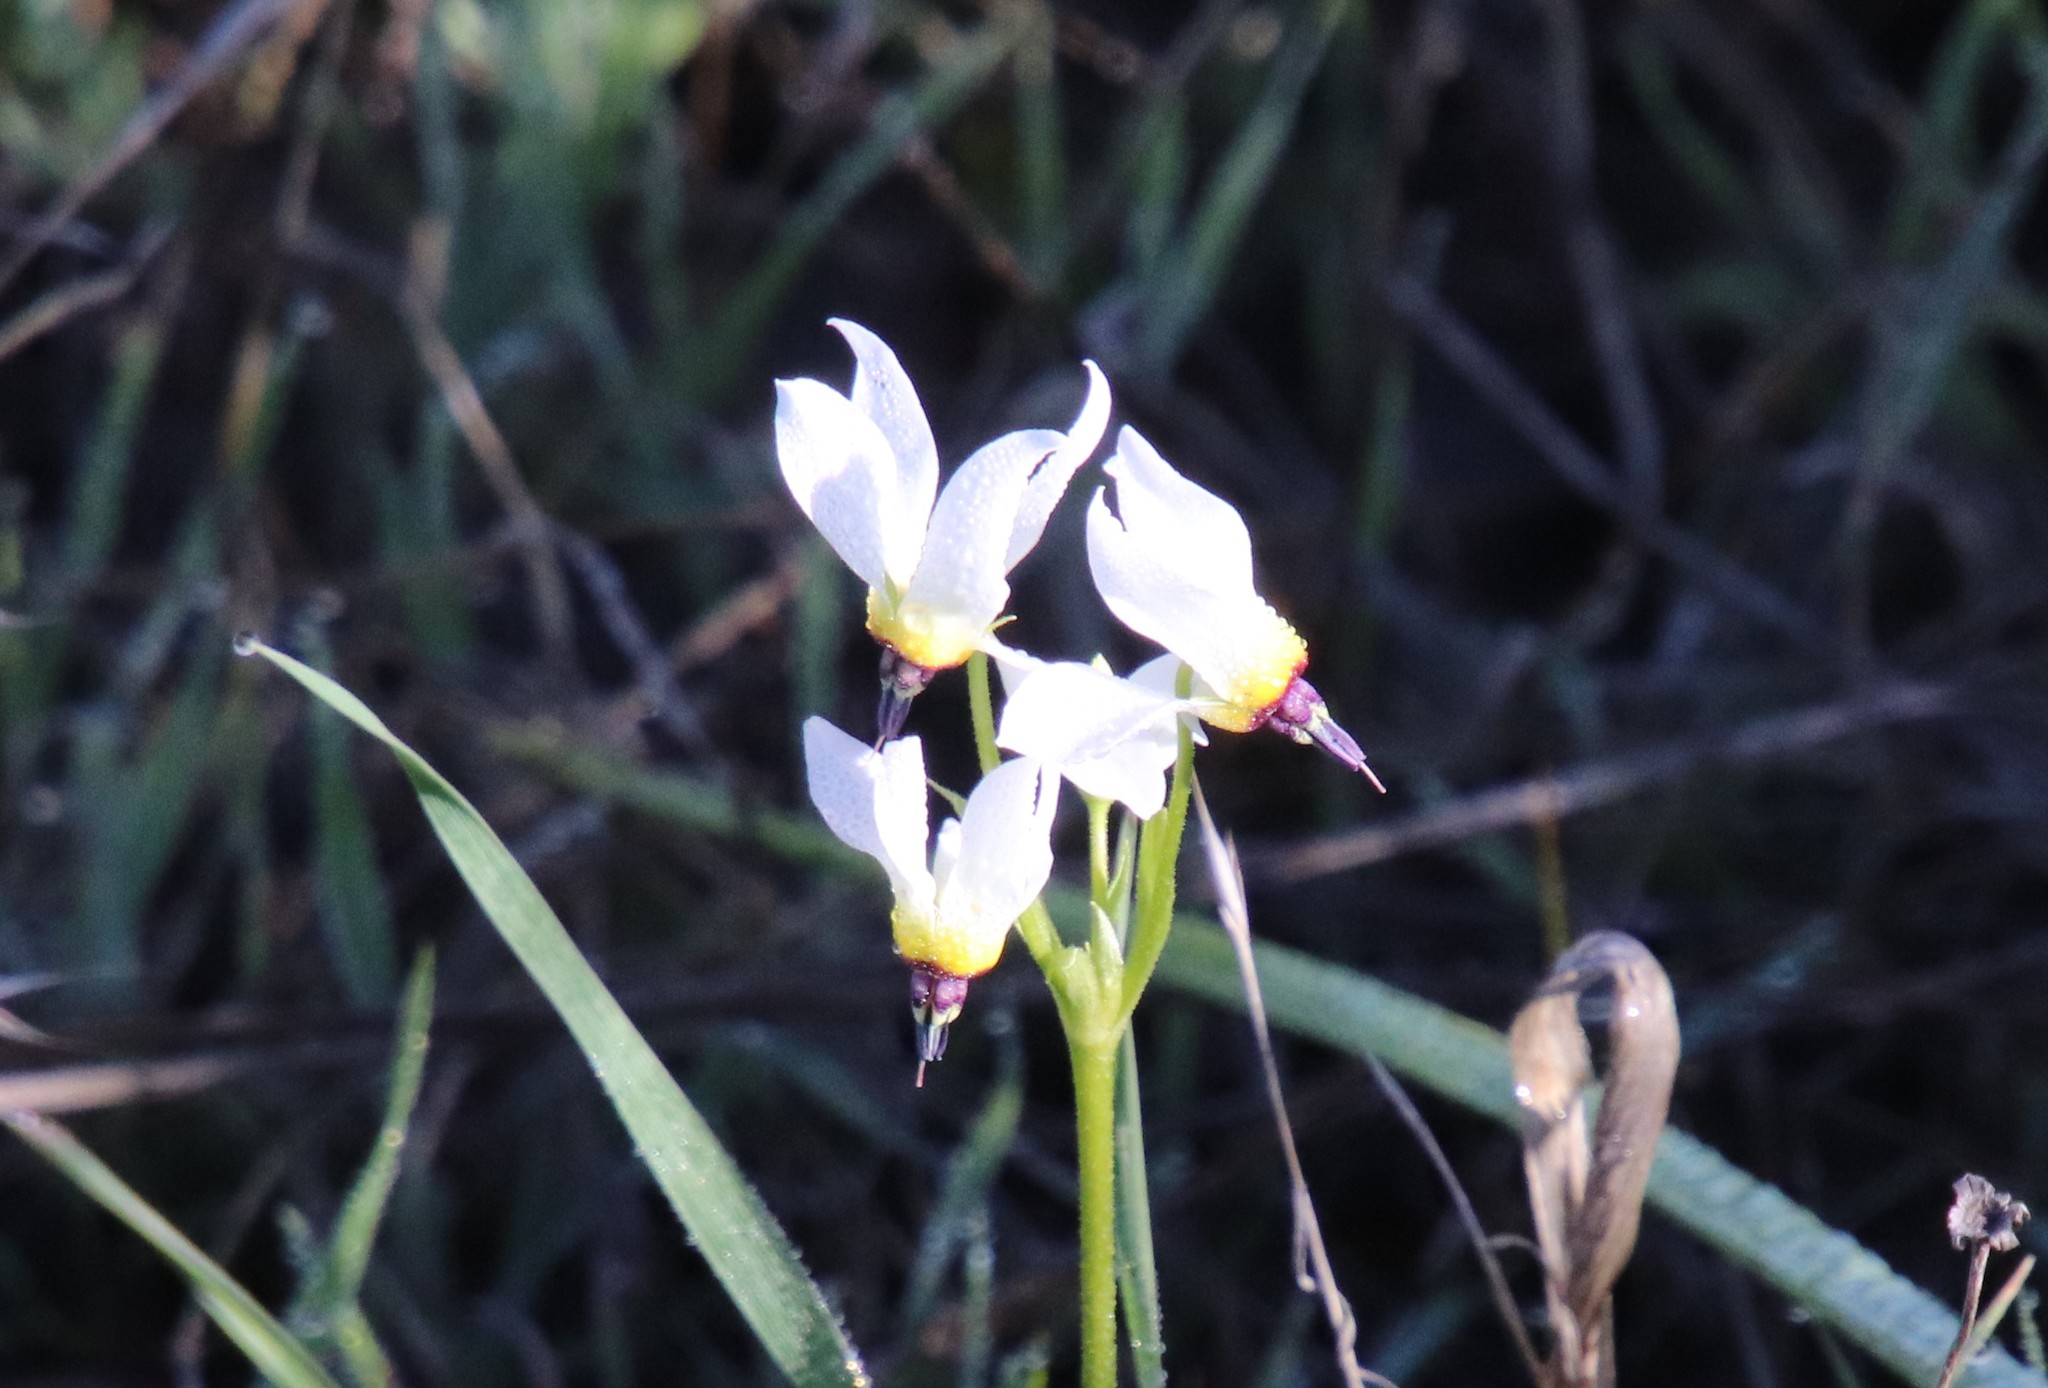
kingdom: Plantae
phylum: Tracheophyta
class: Magnoliopsida
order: Ericales
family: Primulaceae
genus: Dodecatheon
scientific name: Dodecatheon clevelandii
